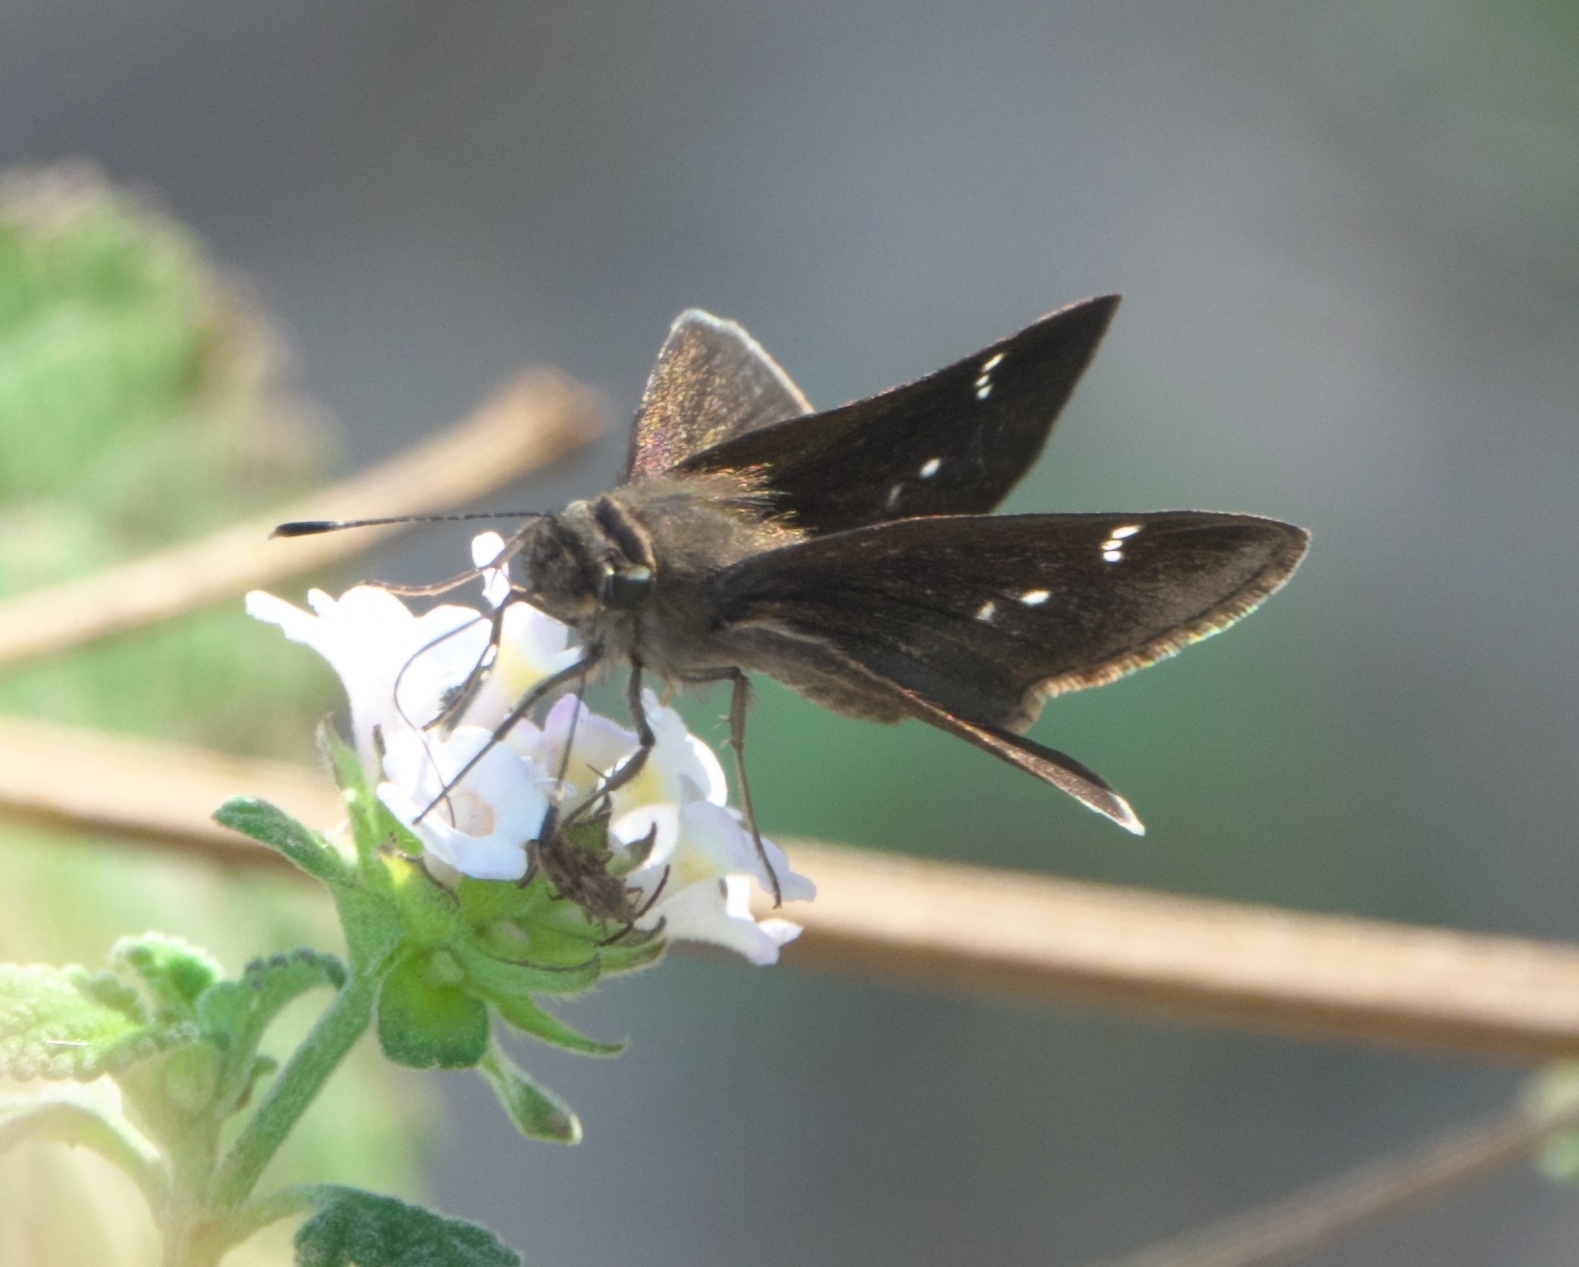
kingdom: Animalia
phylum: Arthropoda
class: Insecta
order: Lepidoptera
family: Hesperiidae
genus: Lerema
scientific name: Lerema accius
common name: Clouded skipper
